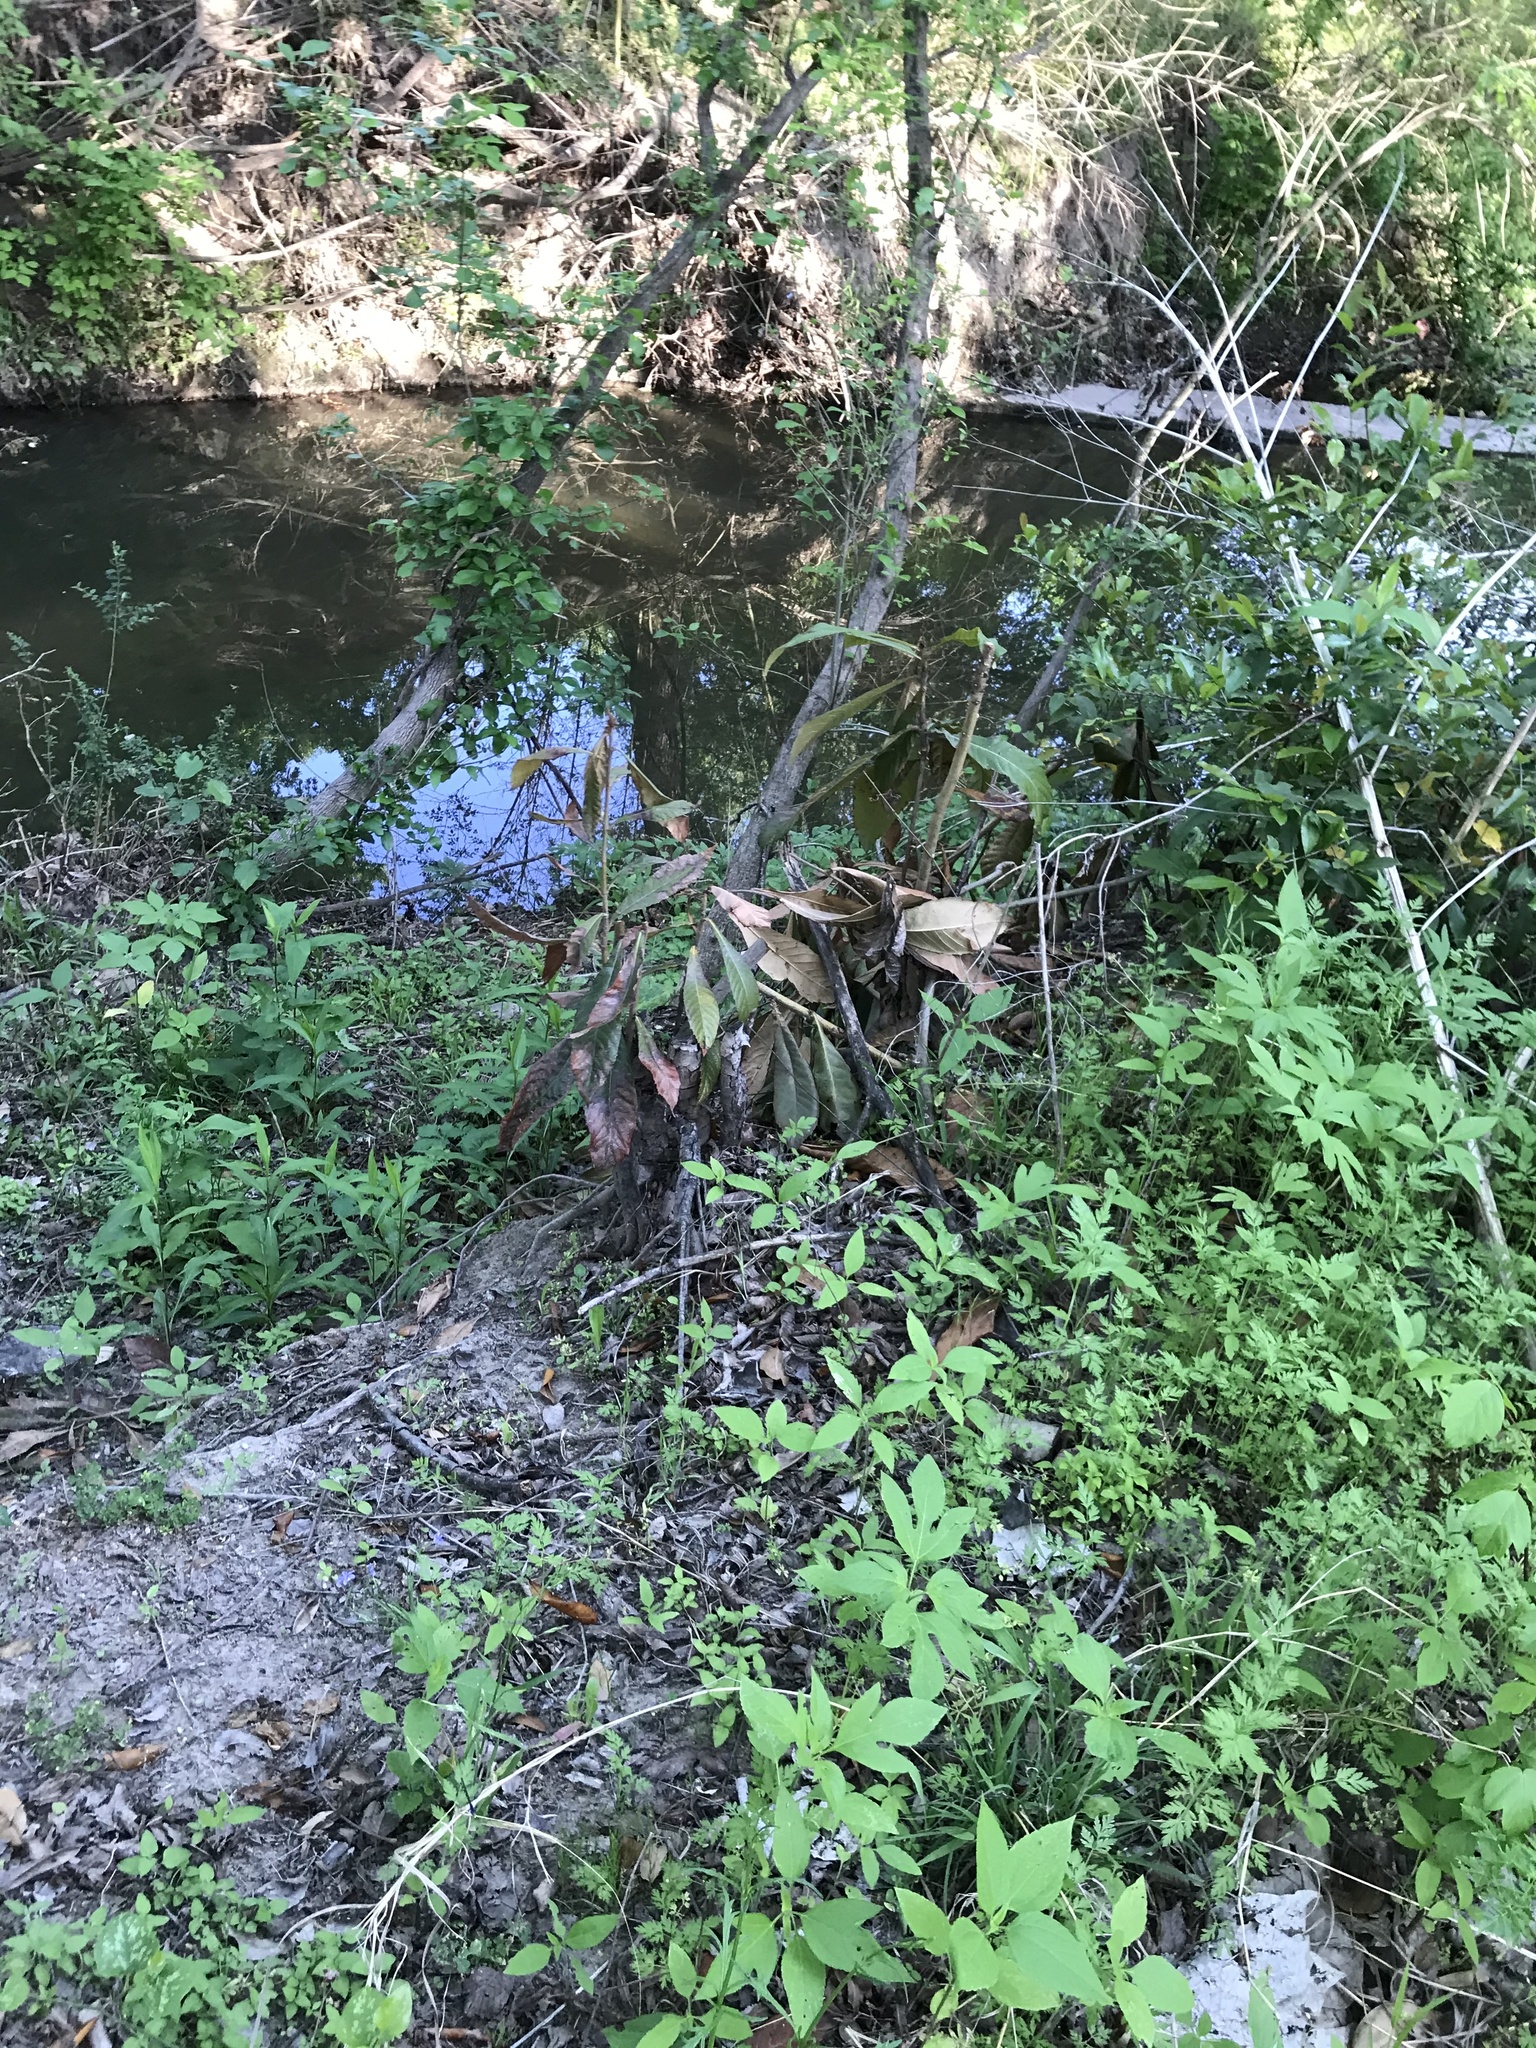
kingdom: Plantae
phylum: Tracheophyta
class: Magnoliopsida
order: Rosales
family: Rosaceae
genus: Rhaphiolepis
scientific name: Rhaphiolepis bibas
